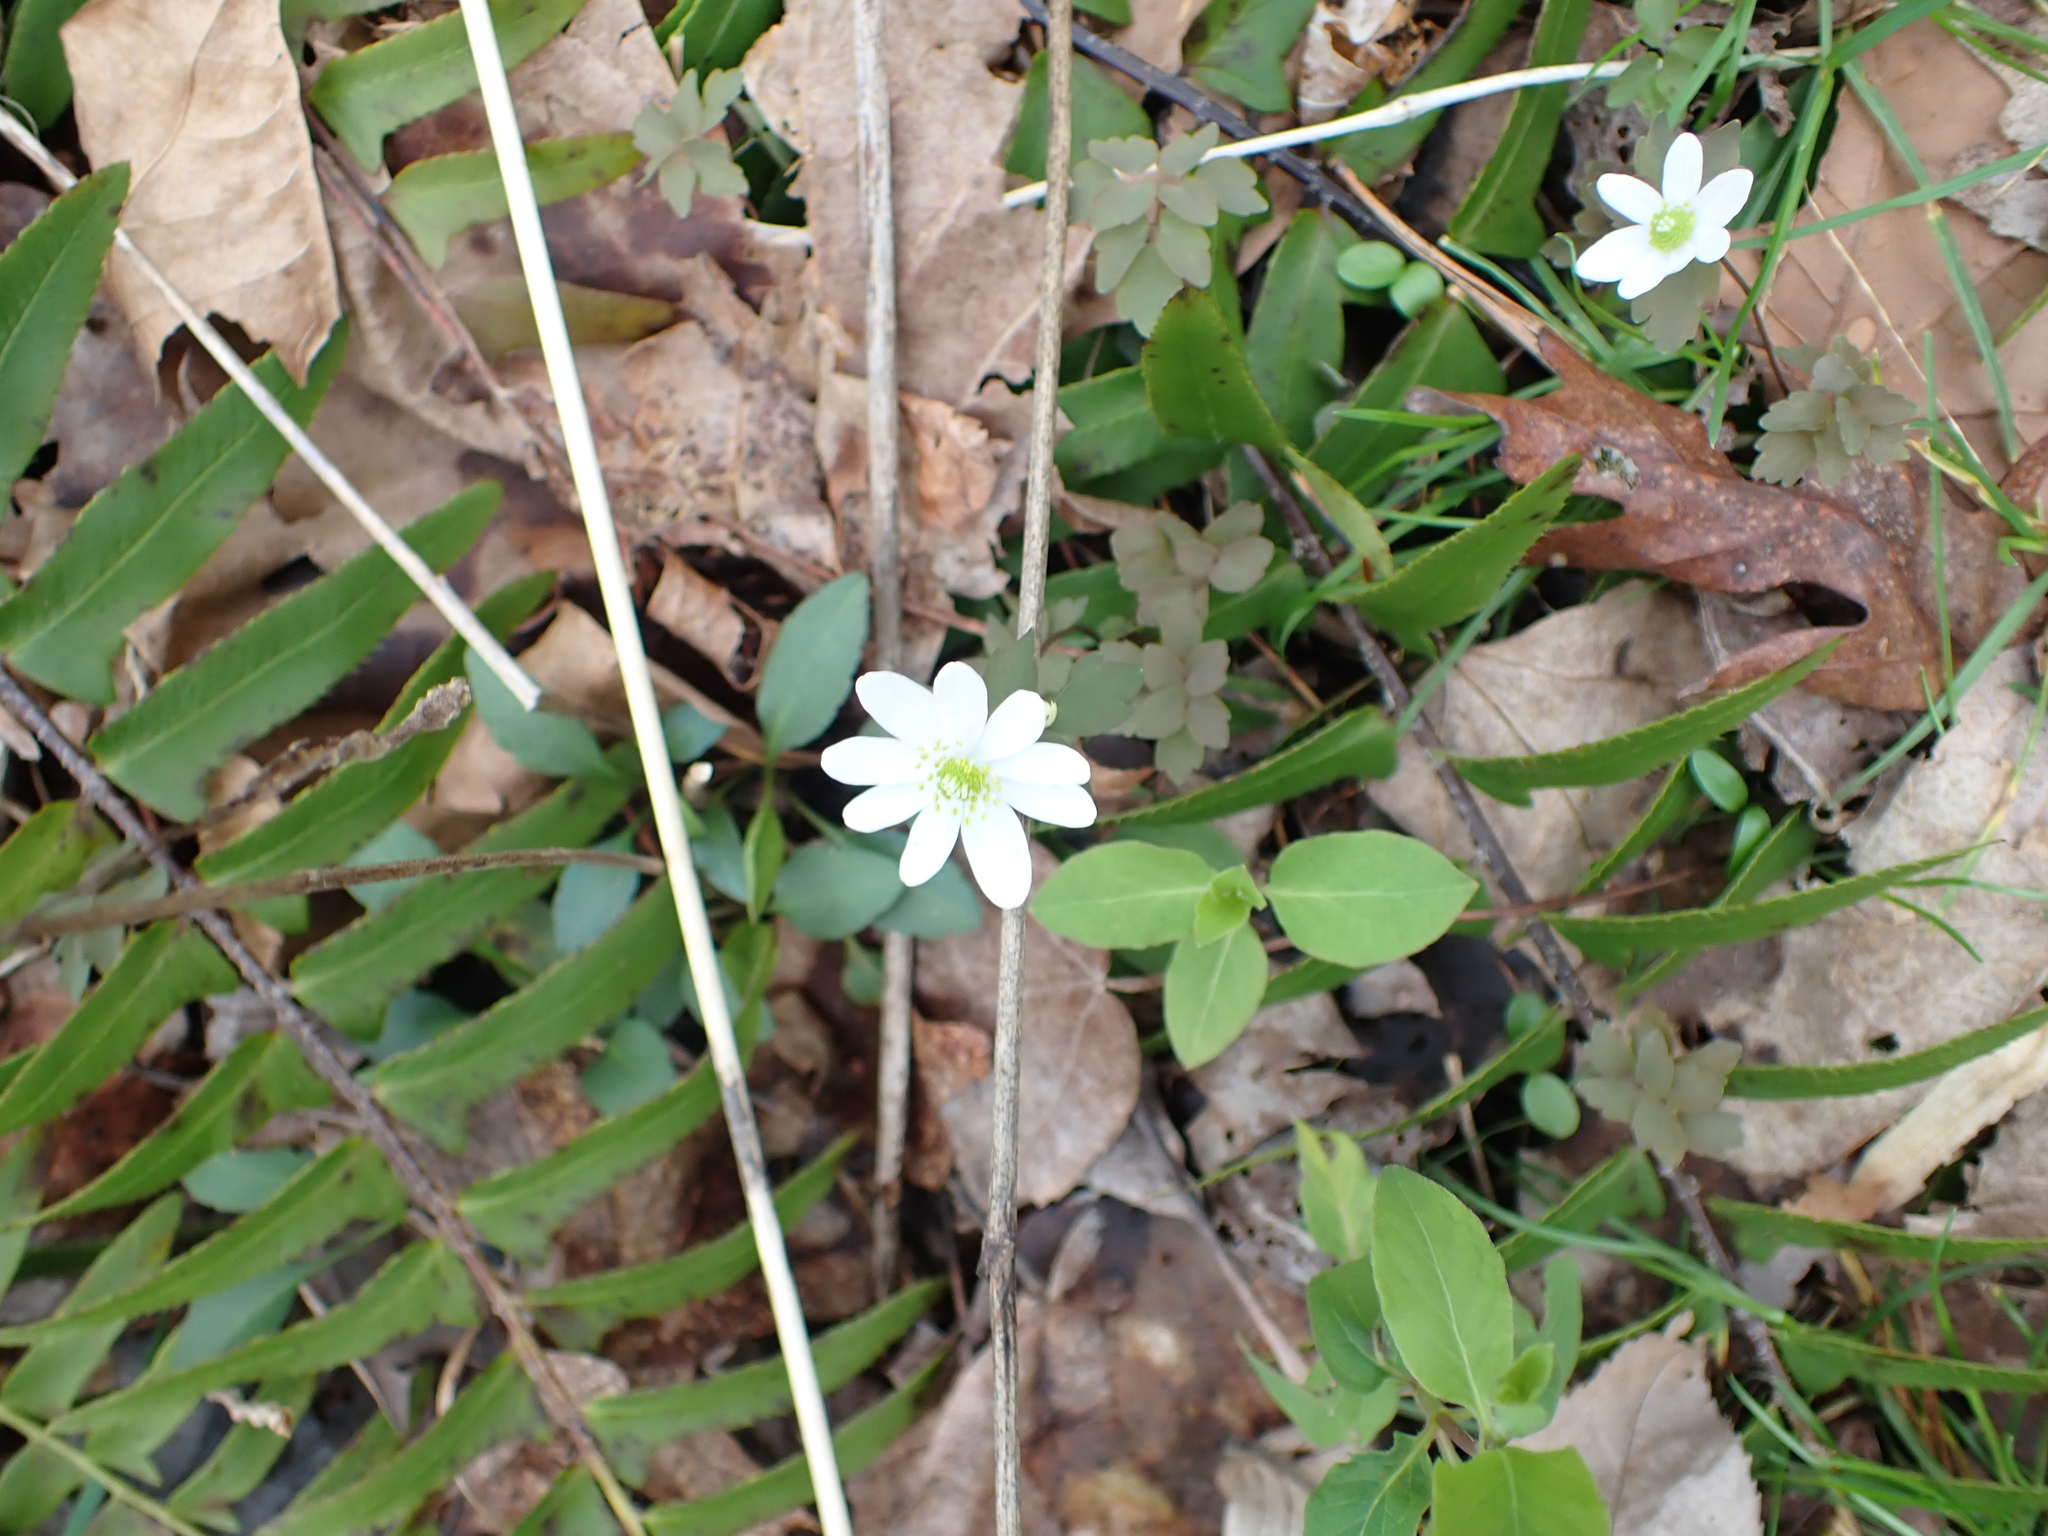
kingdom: Plantae
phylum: Tracheophyta
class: Magnoliopsida
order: Ranunculales
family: Ranunculaceae
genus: Thalictrum
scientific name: Thalictrum thalictroides
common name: Rue-anemone
